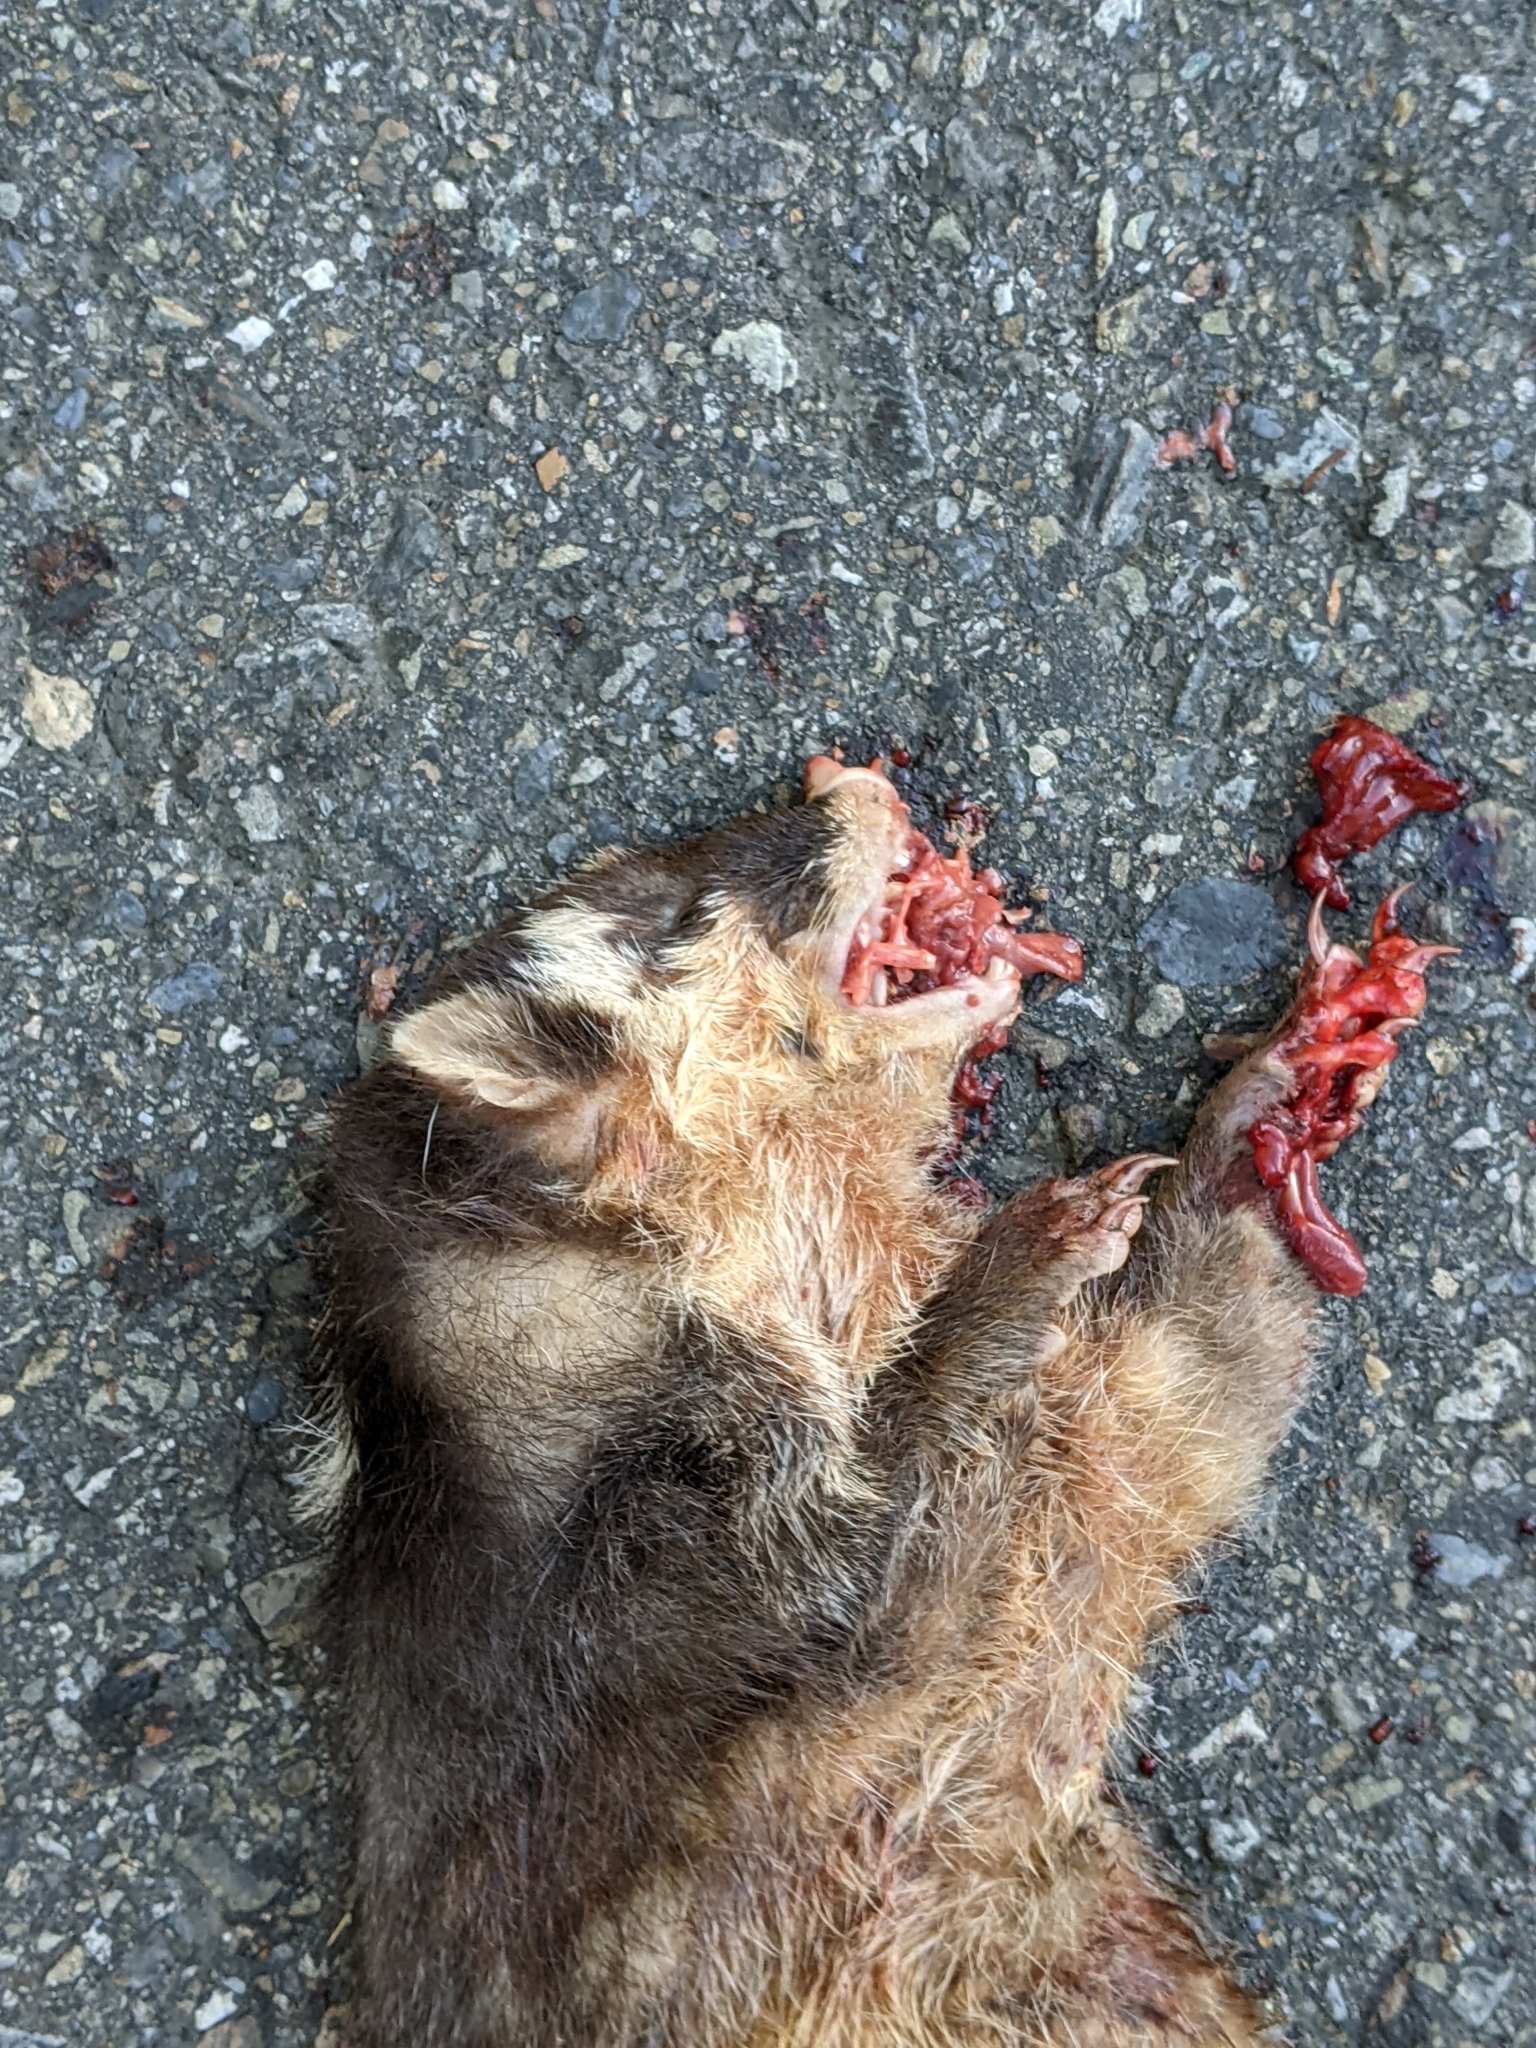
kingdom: Animalia
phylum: Chordata
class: Mammalia
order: Carnivora
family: Mustelidae
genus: Melogale
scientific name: Melogale
